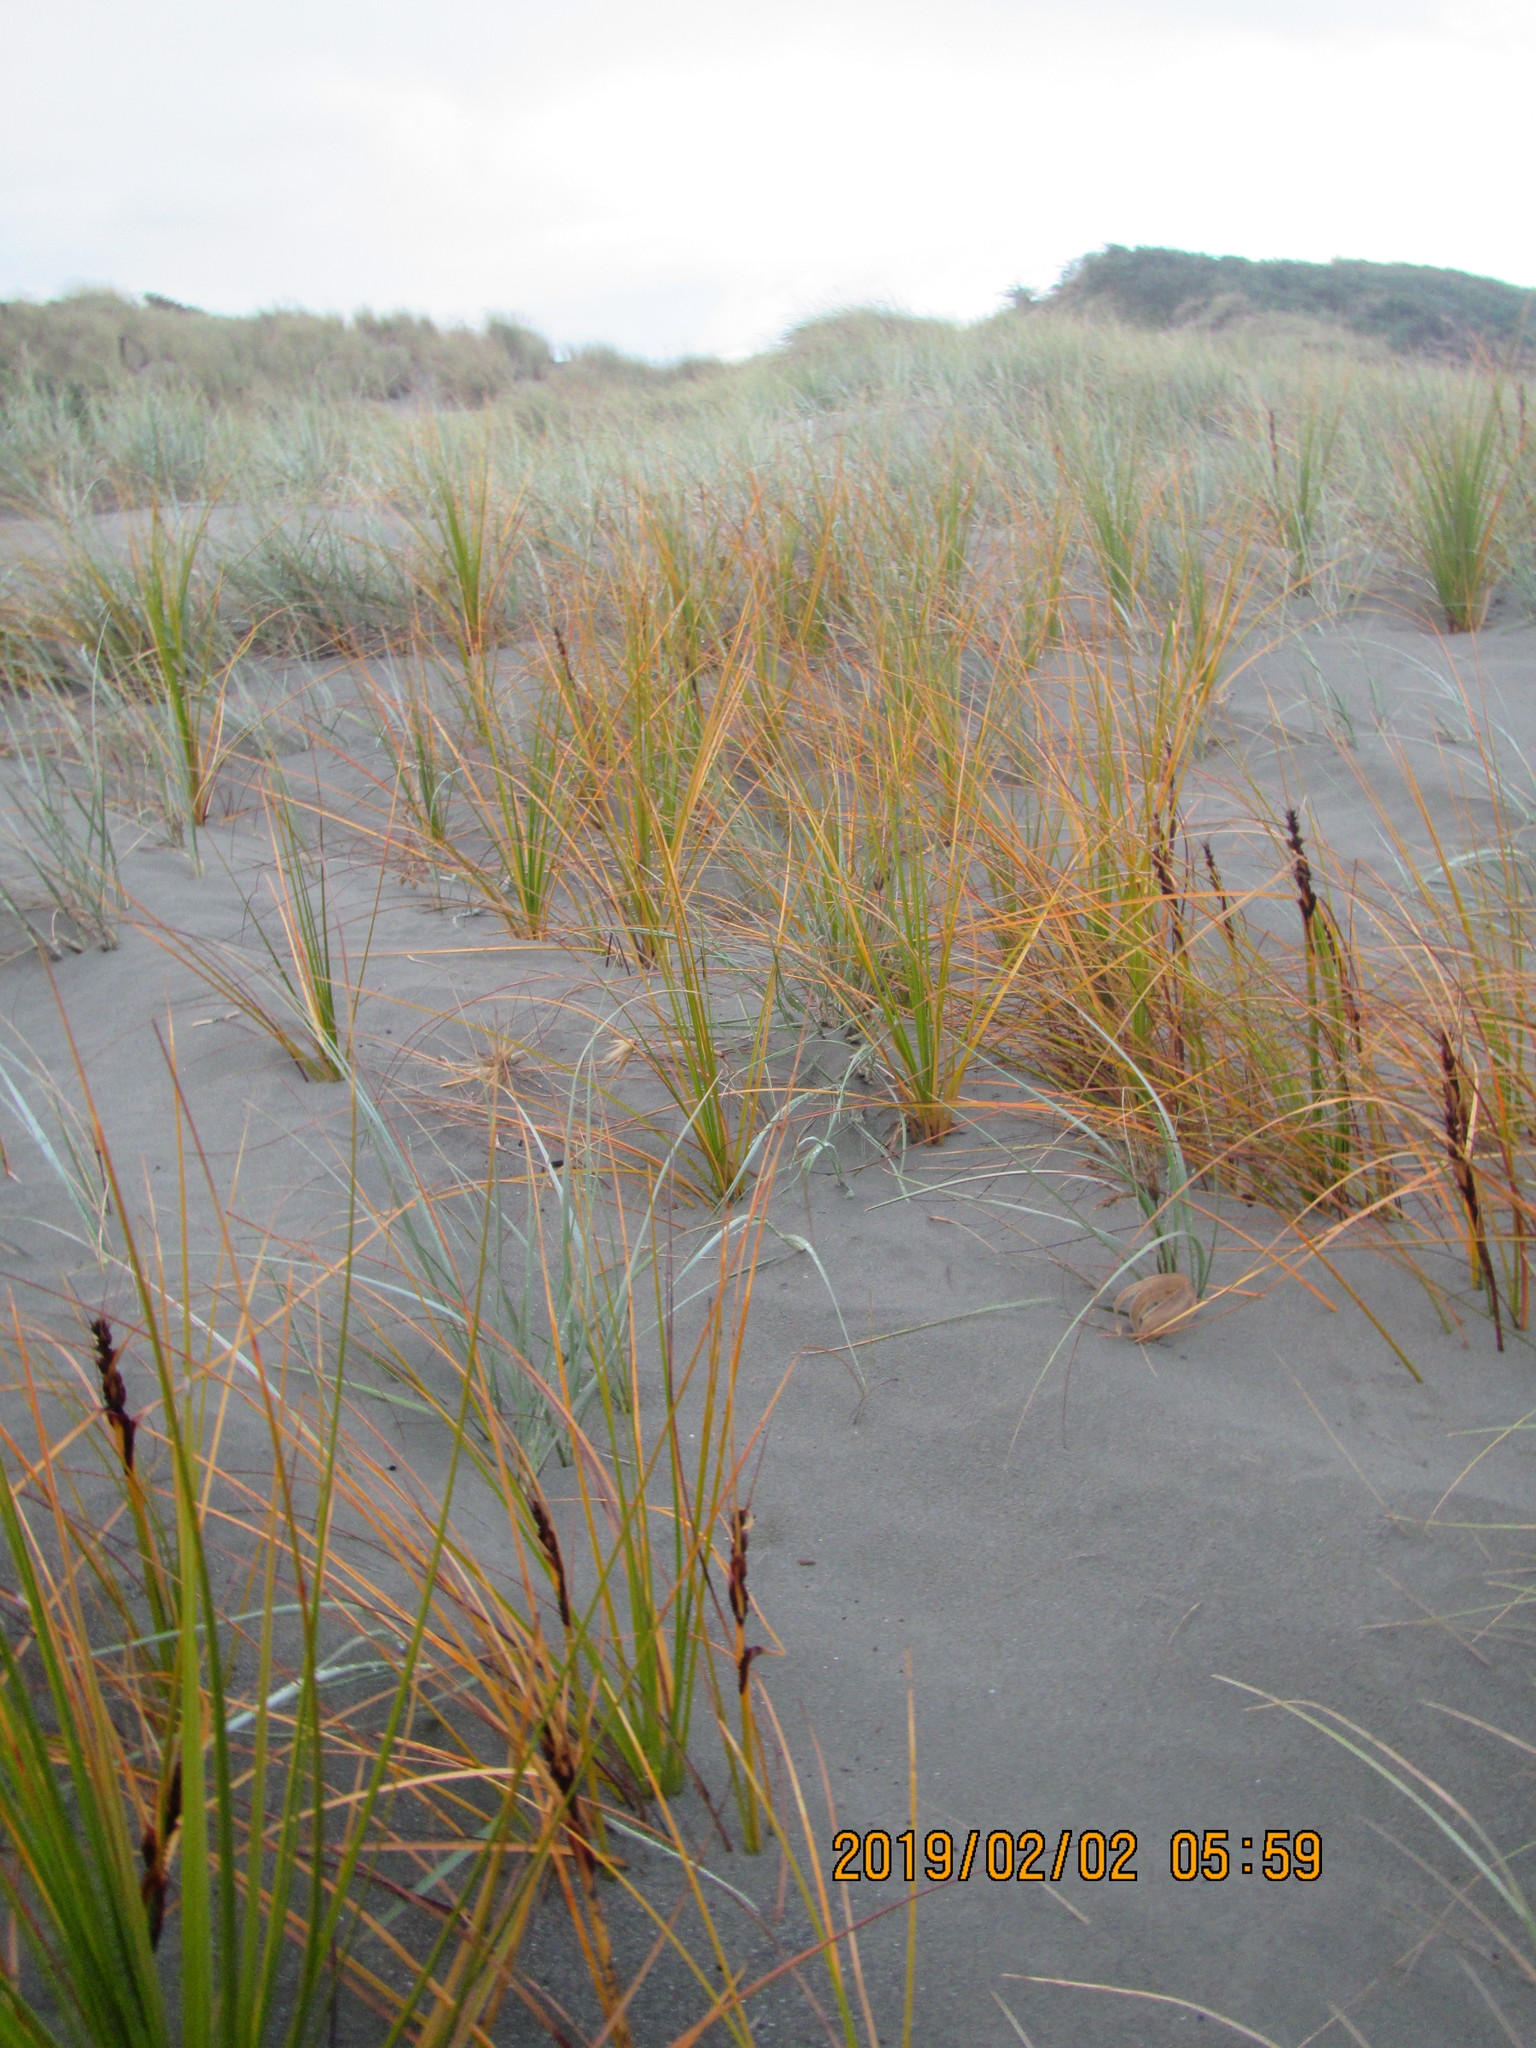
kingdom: Plantae
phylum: Tracheophyta
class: Liliopsida
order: Poales
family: Cyperaceae
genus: Ficinia
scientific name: Ficinia spiralis
